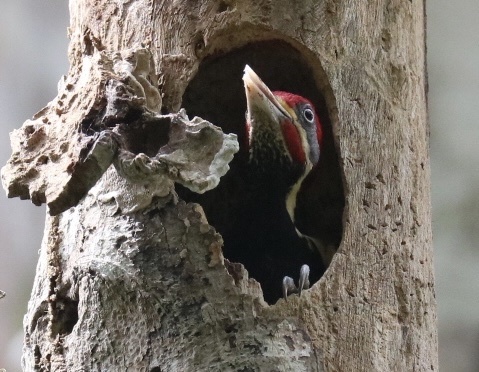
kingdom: Animalia
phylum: Chordata
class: Aves
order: Piciformes
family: Picidae
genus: Dryocopus
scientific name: Dryocopus lineatus
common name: Lineated woodpecker
